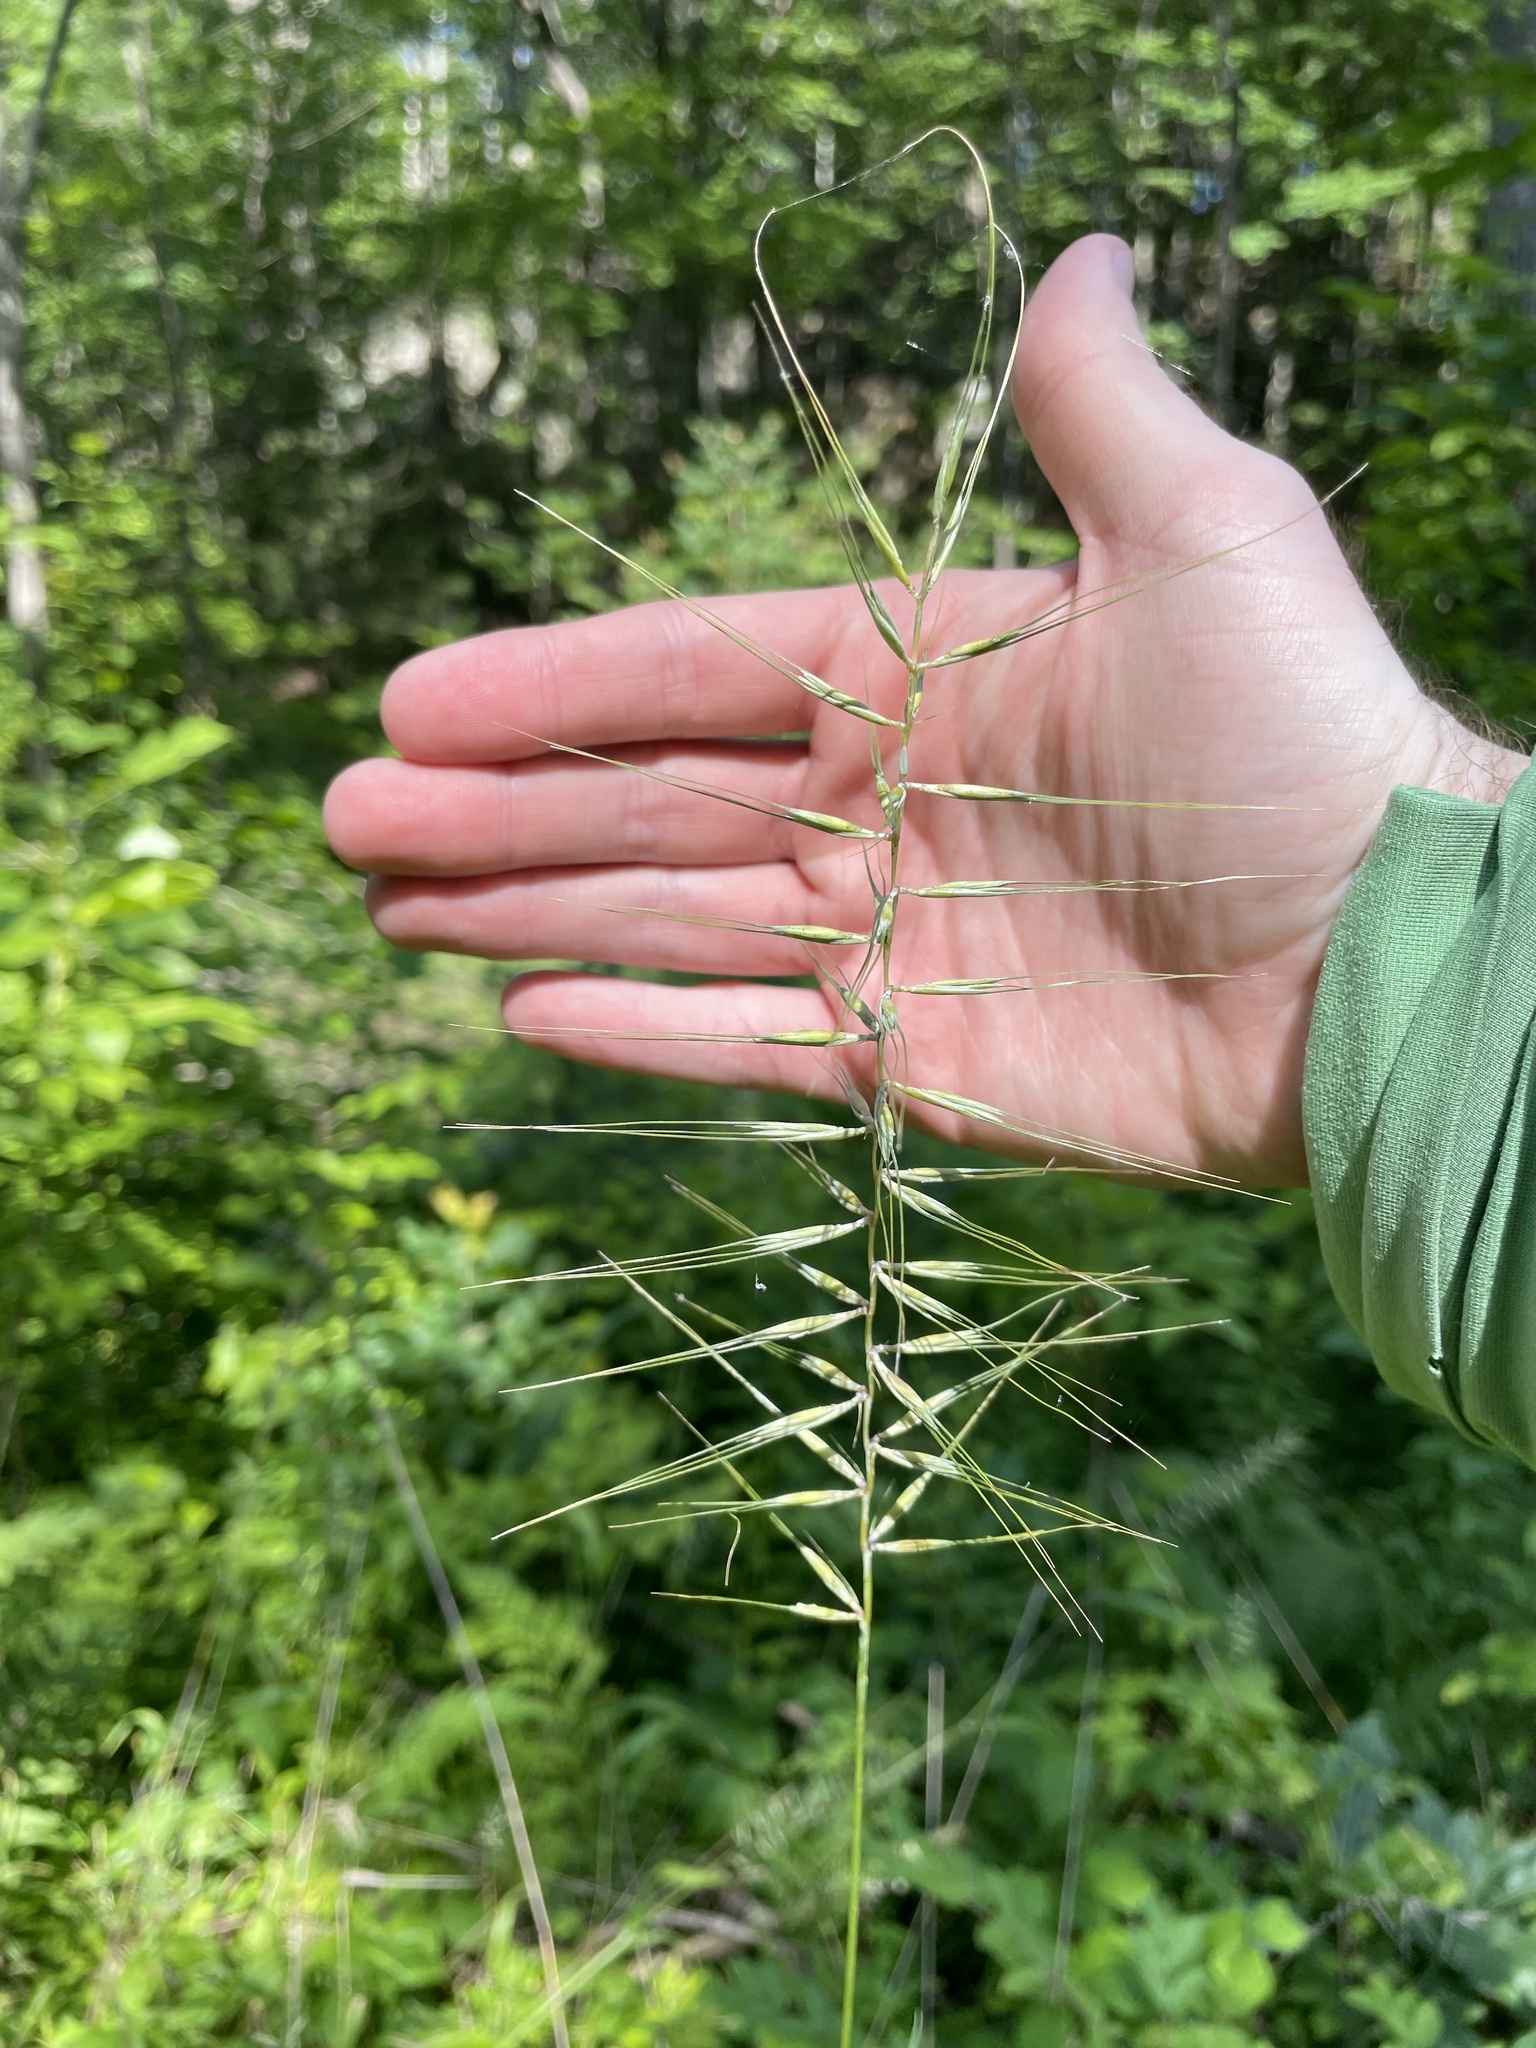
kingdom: Plantae
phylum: Tracheophyta
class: Liliopsida
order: Poales
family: Poaceae
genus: Elymus
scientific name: Elymus hystrix
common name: Bottlebrush grass
